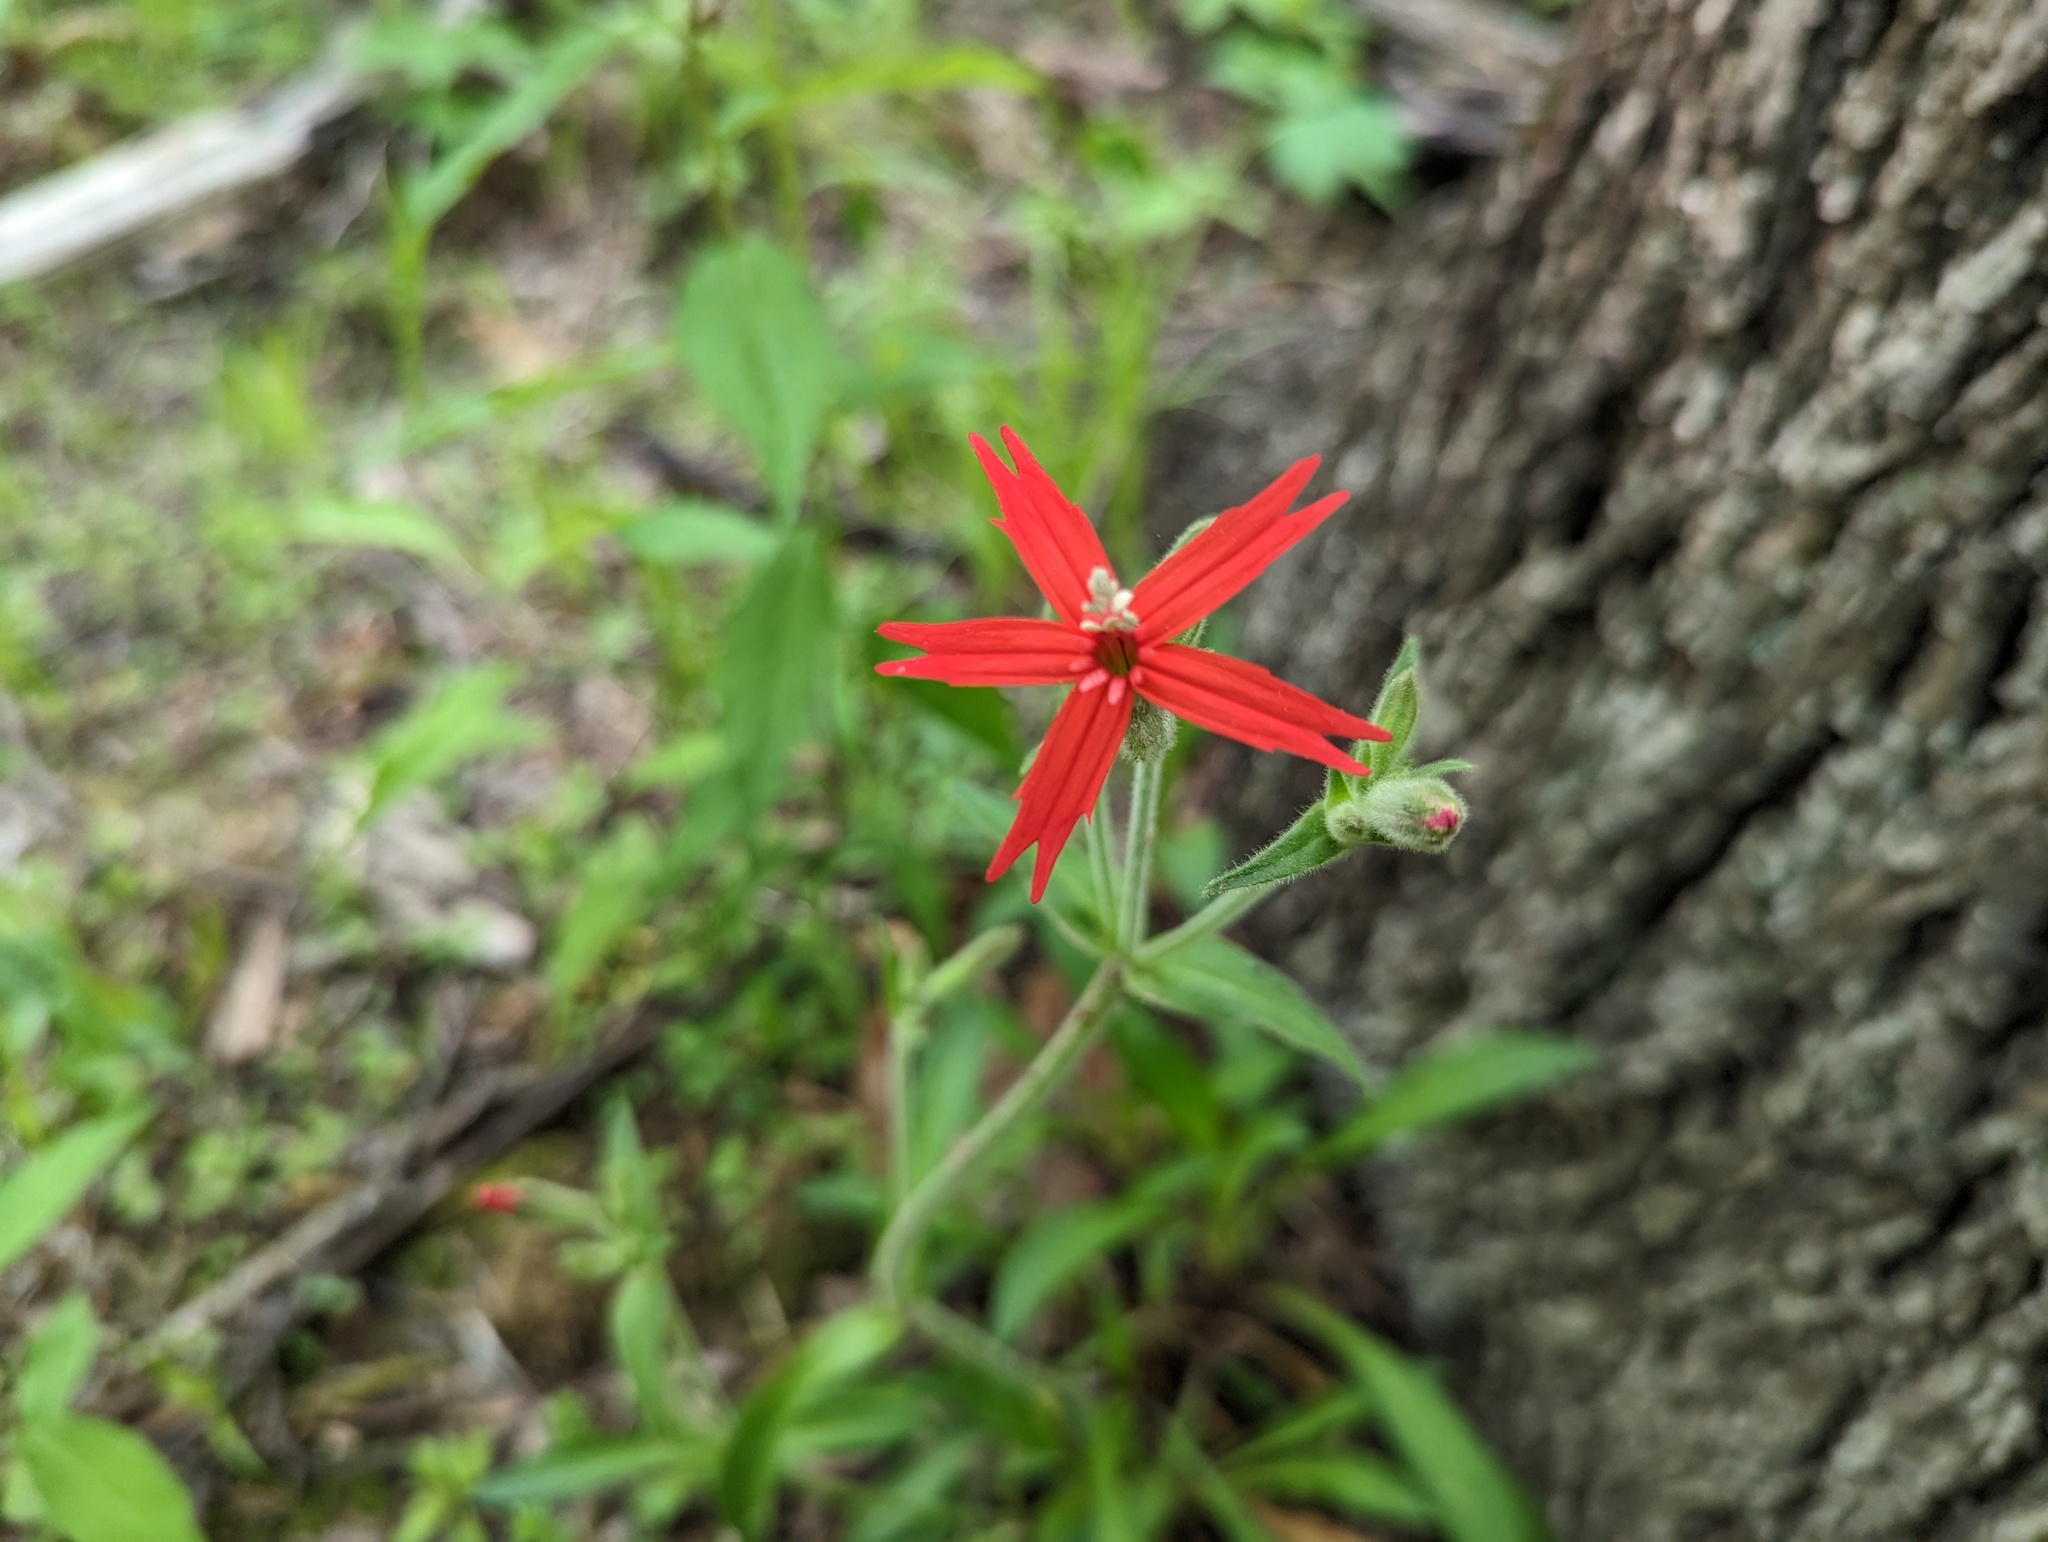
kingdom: Plantae
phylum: Tracheophyta
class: Magnoliopsida
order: Caryophyllales
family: Caryophyllaceae
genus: Silene
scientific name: Silene virginica
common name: Fire-pink
